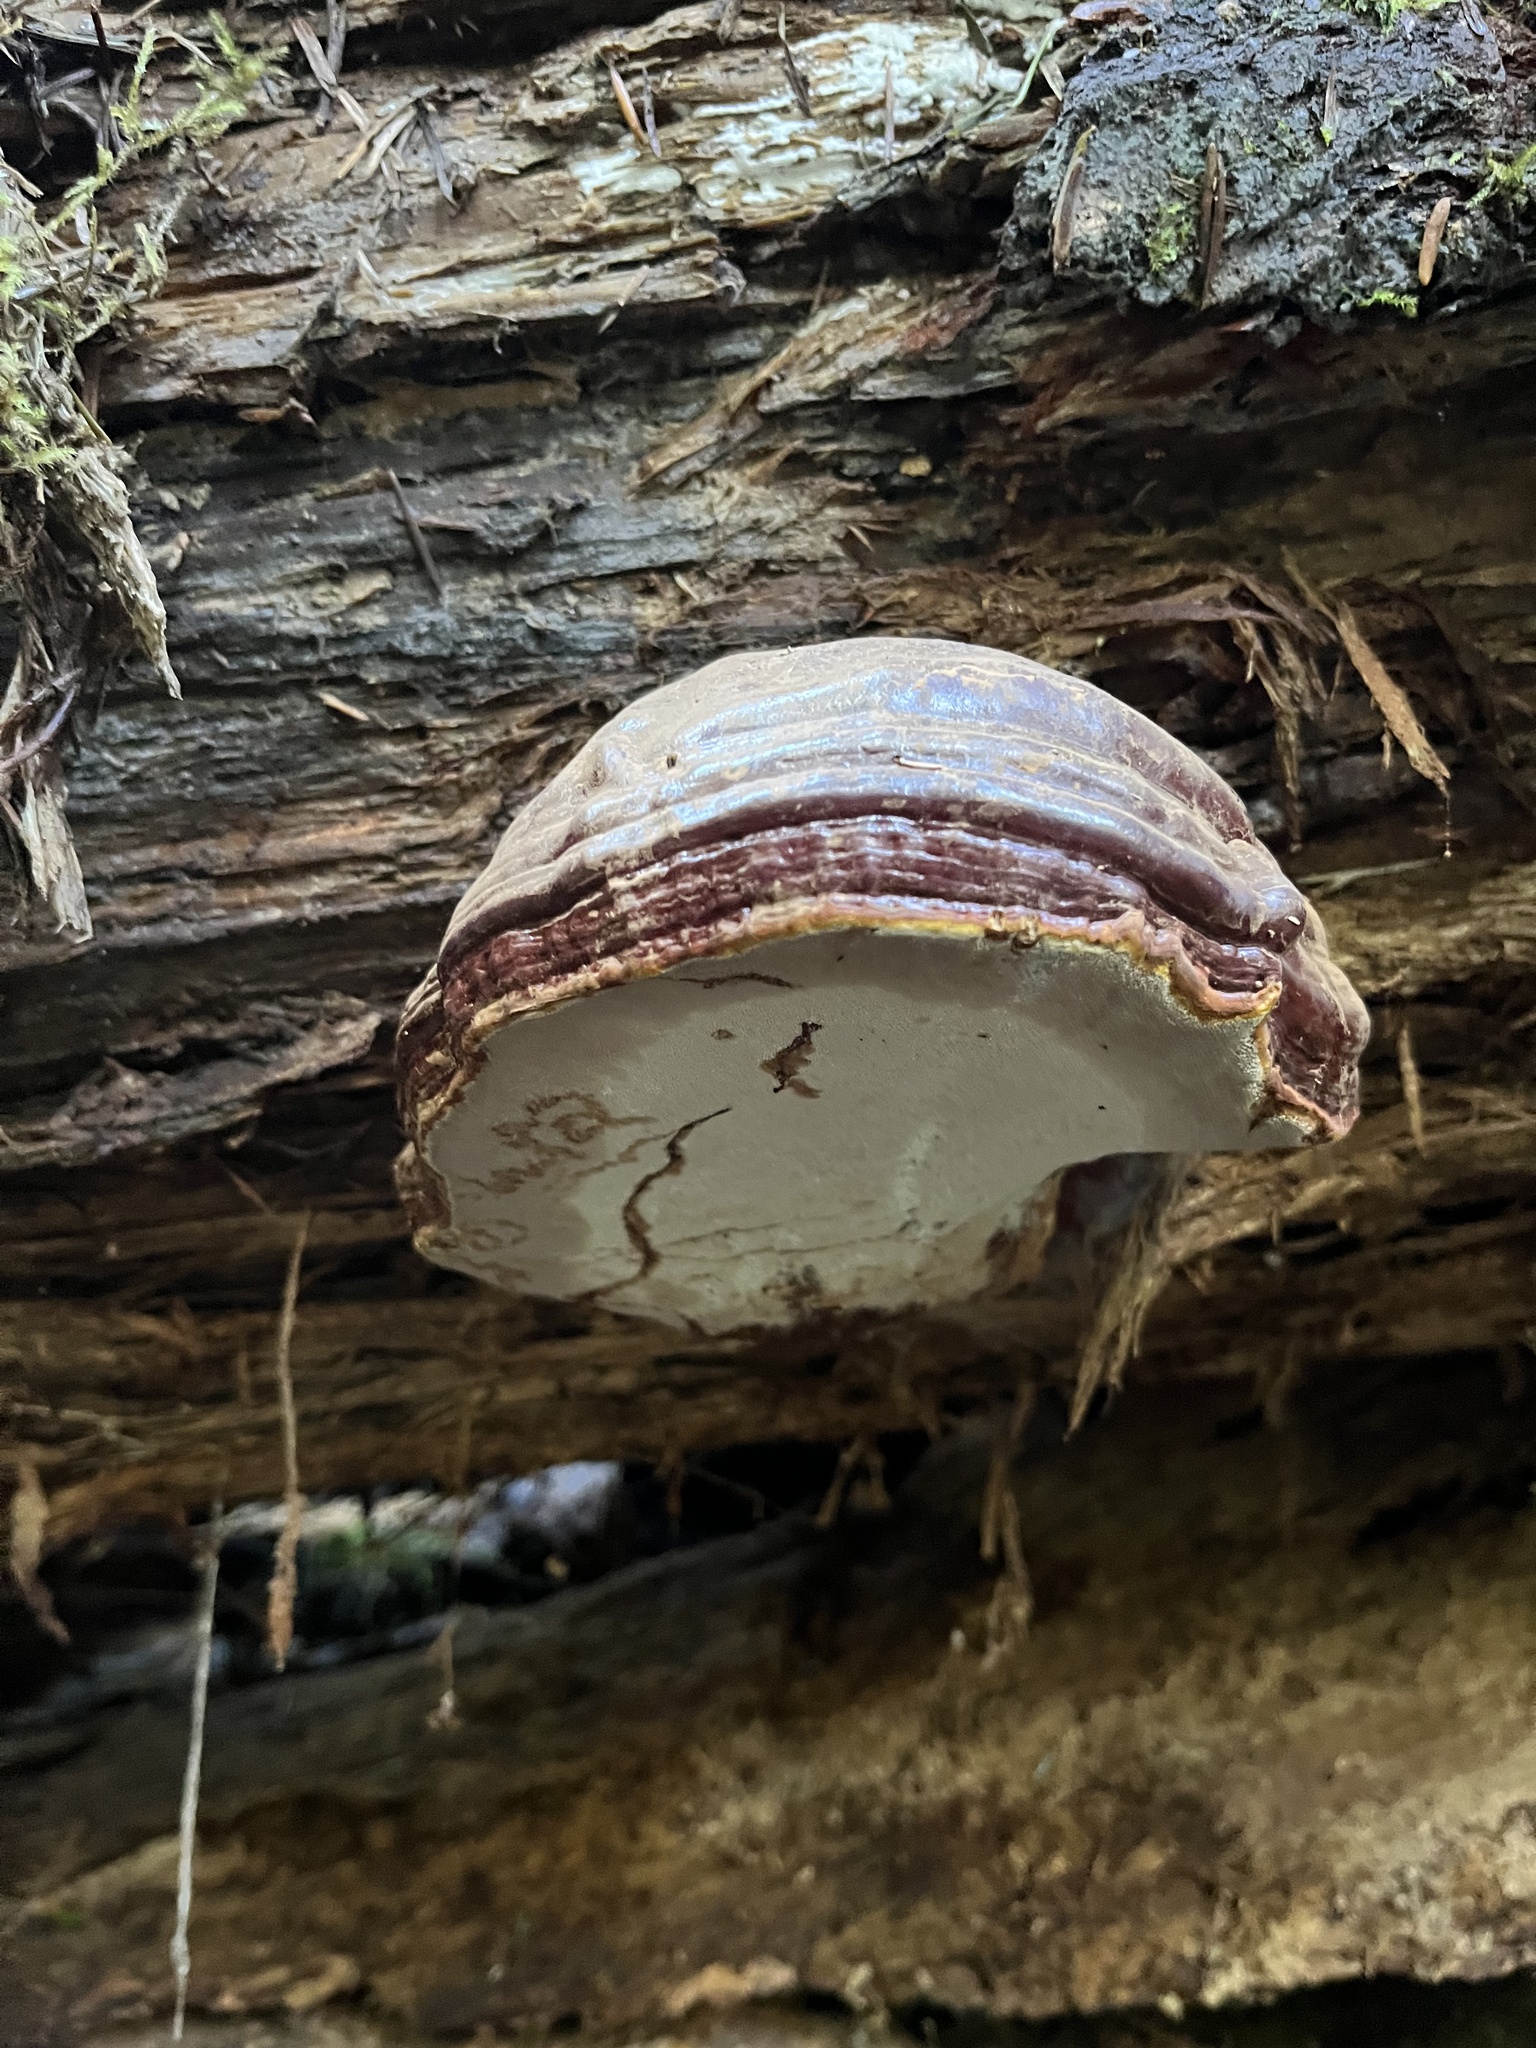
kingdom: Fungi
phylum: Basidiomycota
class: Agaricomycetes
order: Polyporales
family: Polyporaceae
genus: Ganoderma
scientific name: Ganoderma oregonense
